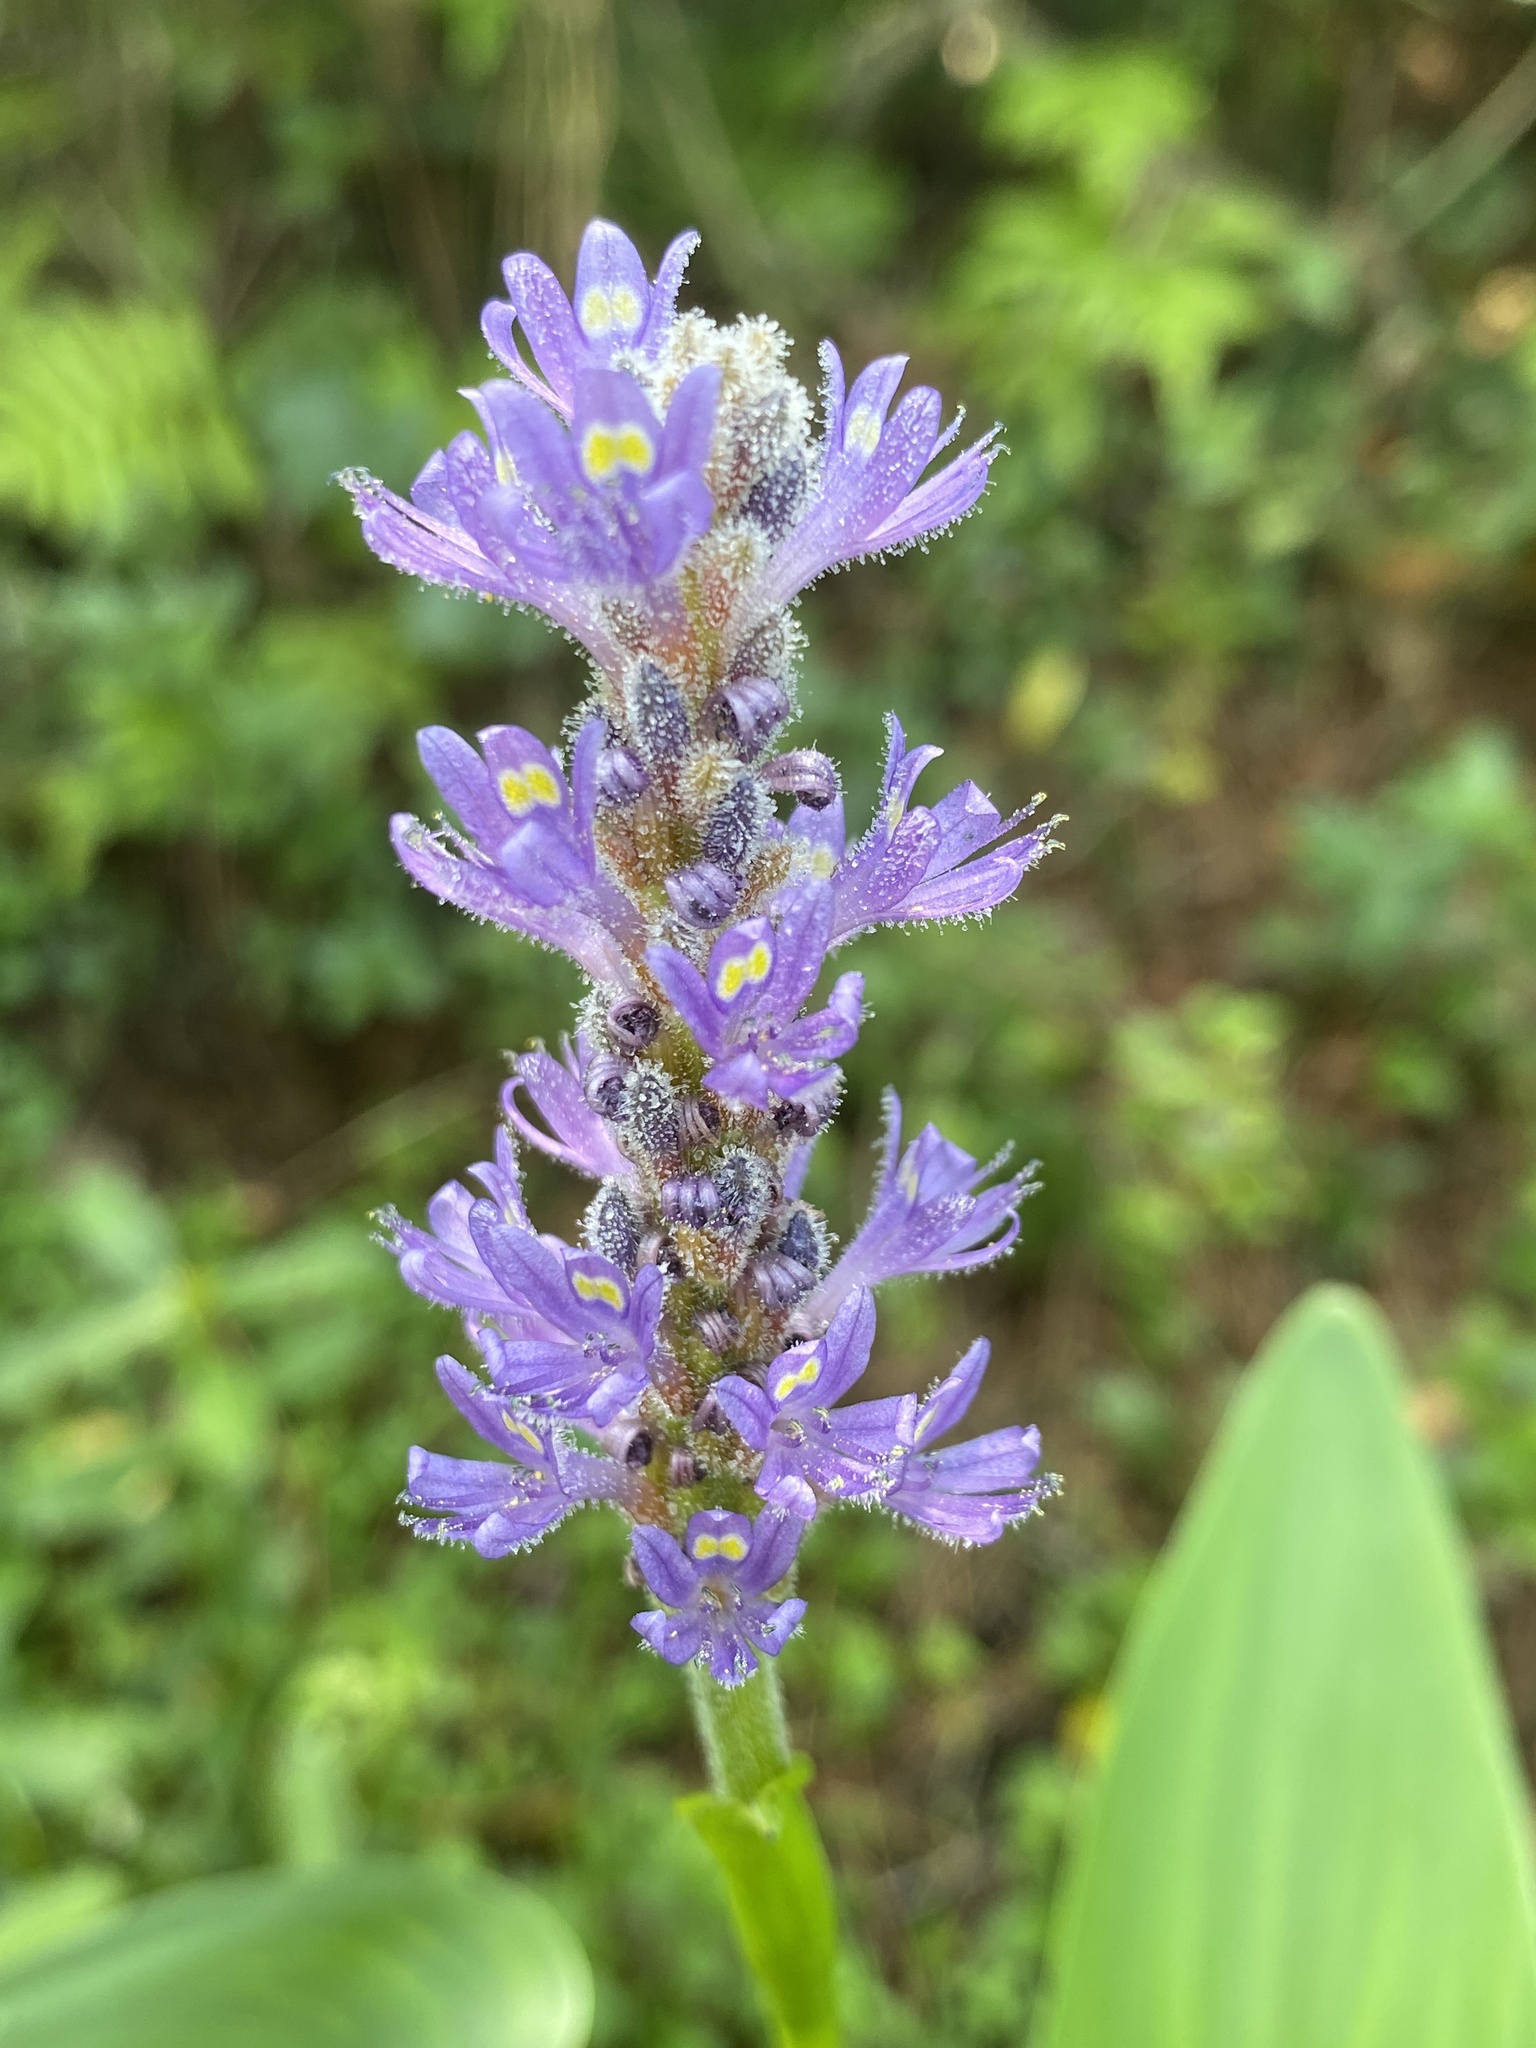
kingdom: Plantae
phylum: Tracheophyta
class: Liliopsida
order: Commelinales
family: Pontederiaceae
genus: Pontederia
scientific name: Pontederia cordata
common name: Pickerelweed
